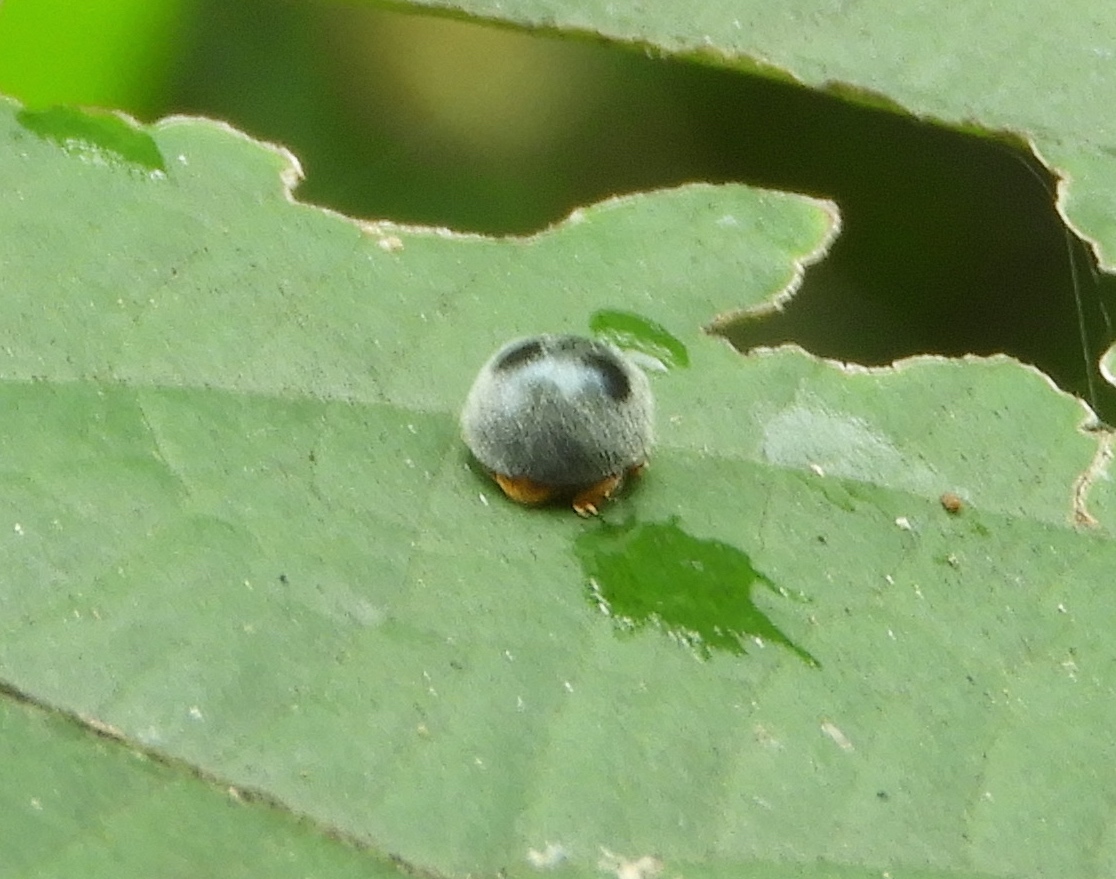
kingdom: Animalia
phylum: Arthropoda
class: Insecta
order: Coleoptera
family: Coccinellidae
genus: Azya
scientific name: Azya
